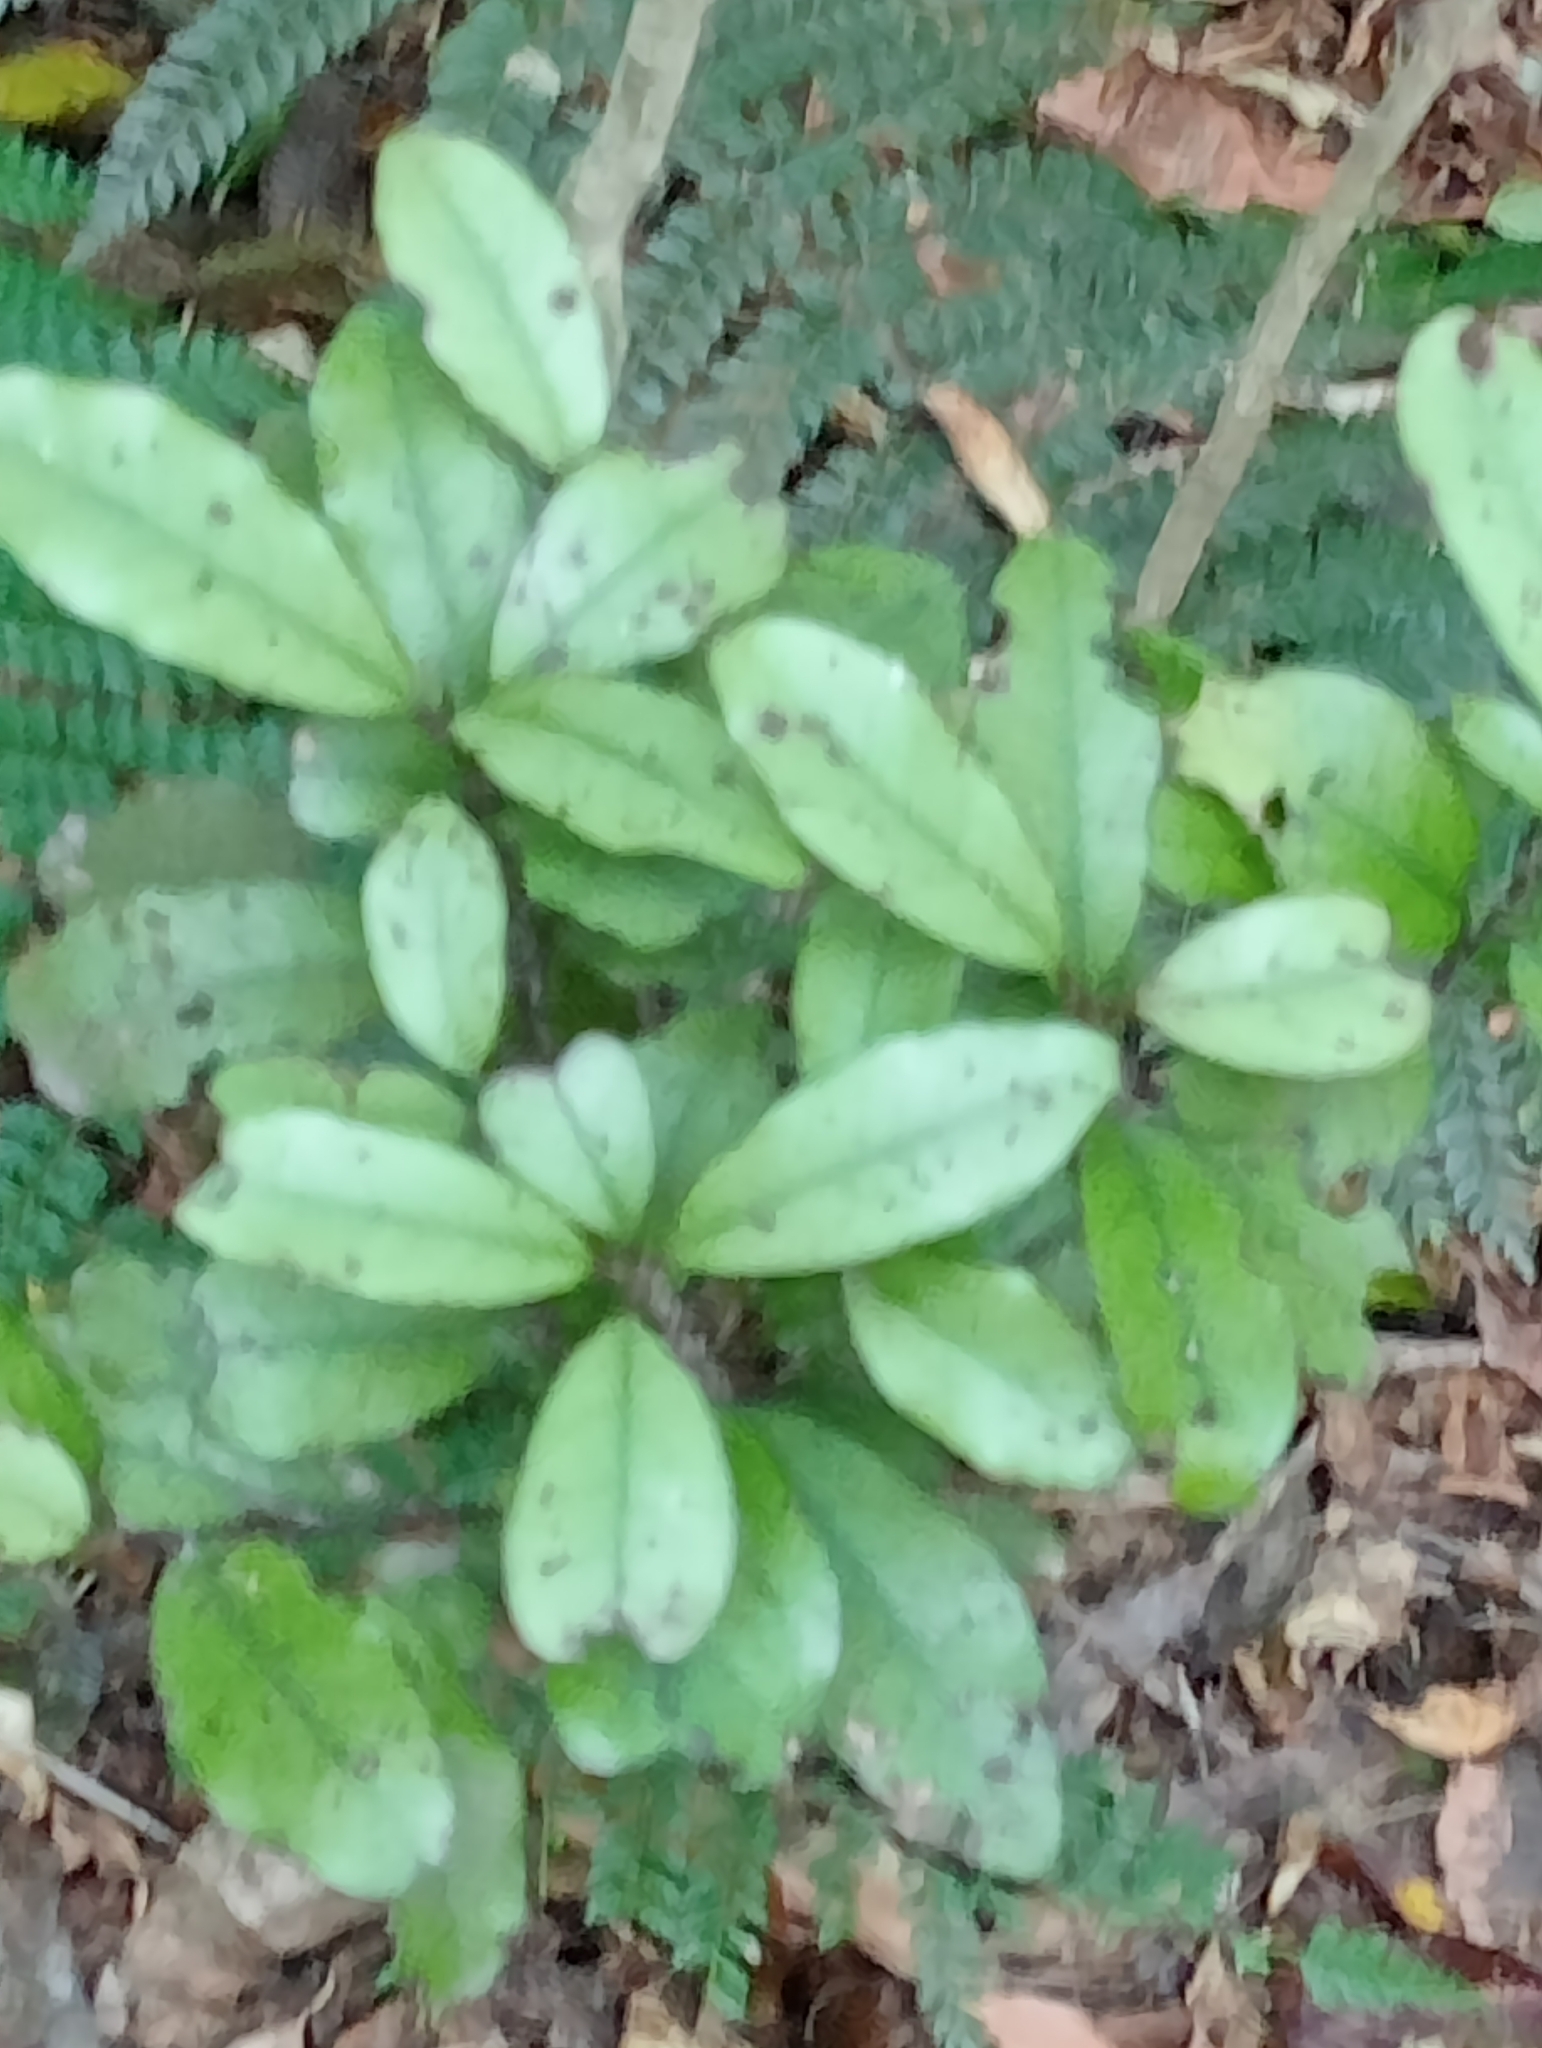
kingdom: Plantae
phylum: Tracheophyta
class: Magnoliopsida
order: Canellales
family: Winteraceae
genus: Pseudowintera
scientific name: Pseudowintera colorata
